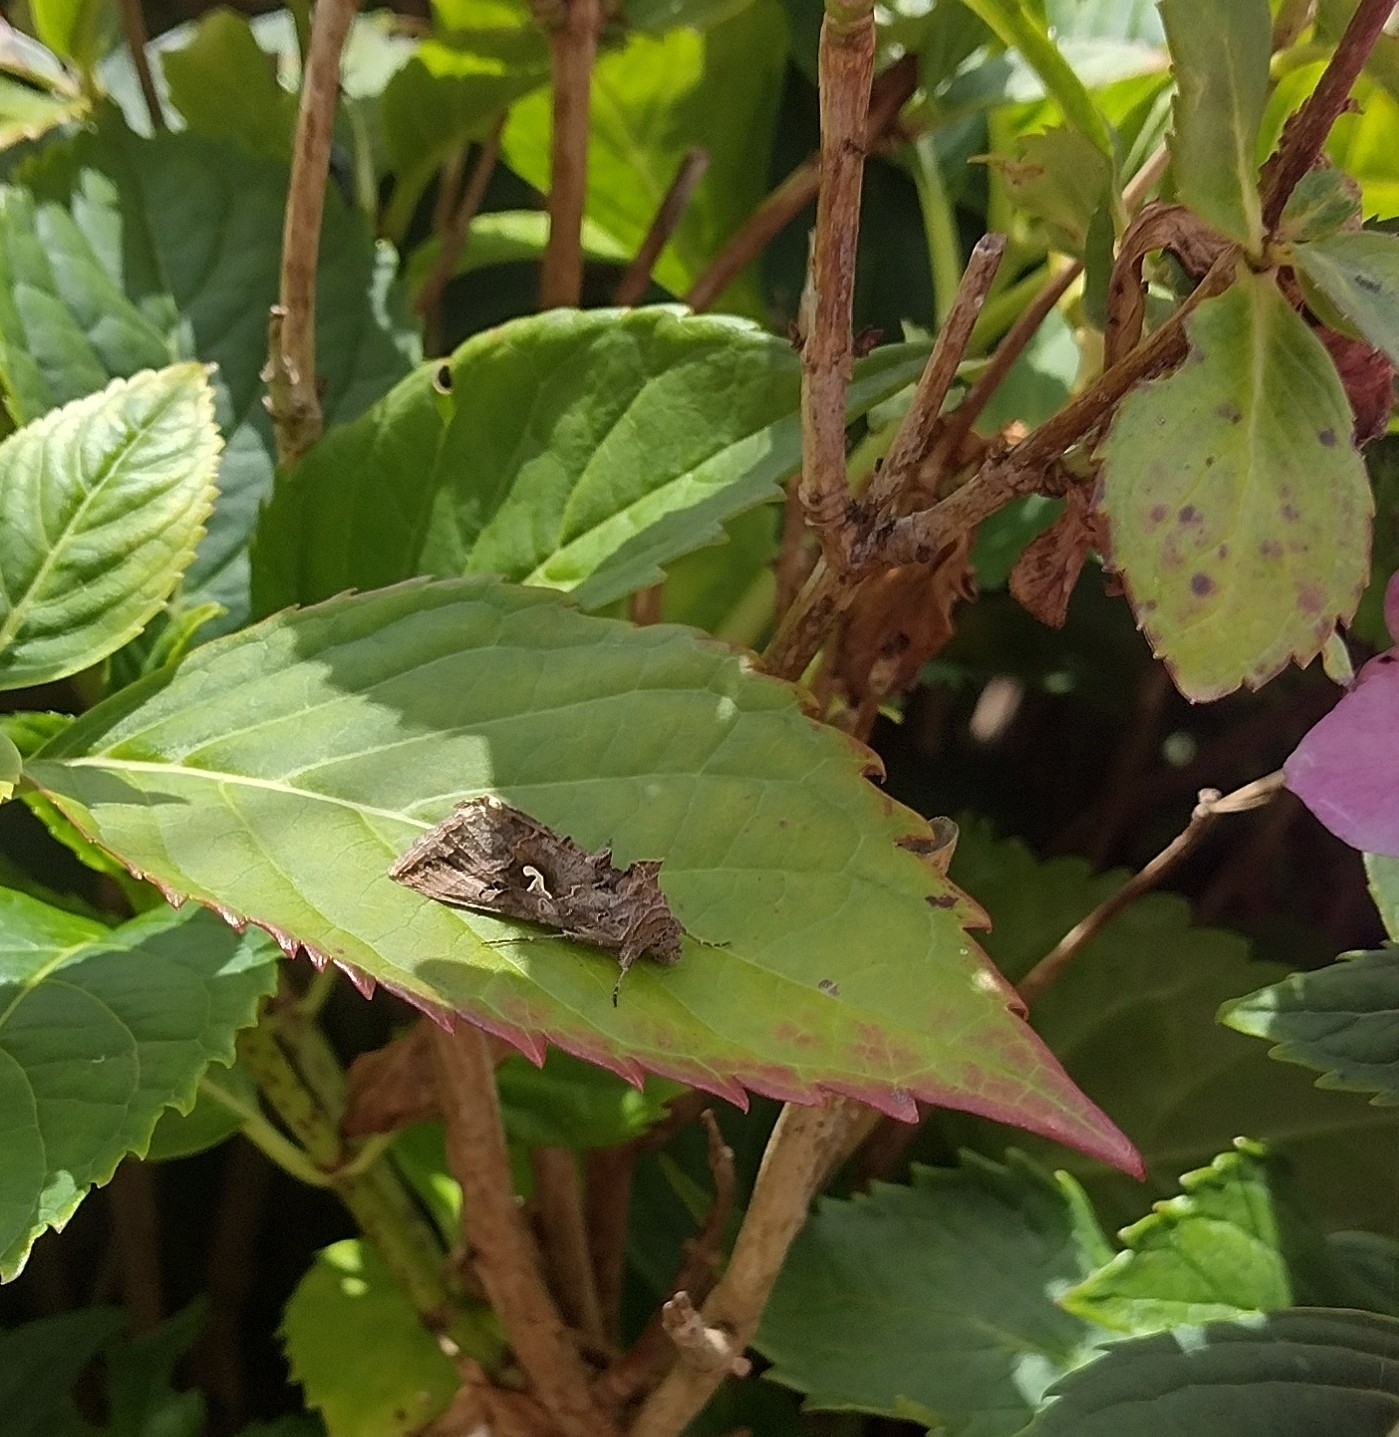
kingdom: Animalia
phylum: Arthropoda
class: Insecta
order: Lepidoptera
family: Noctuidae
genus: Autographa
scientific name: Autographa gamma
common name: Silver y
